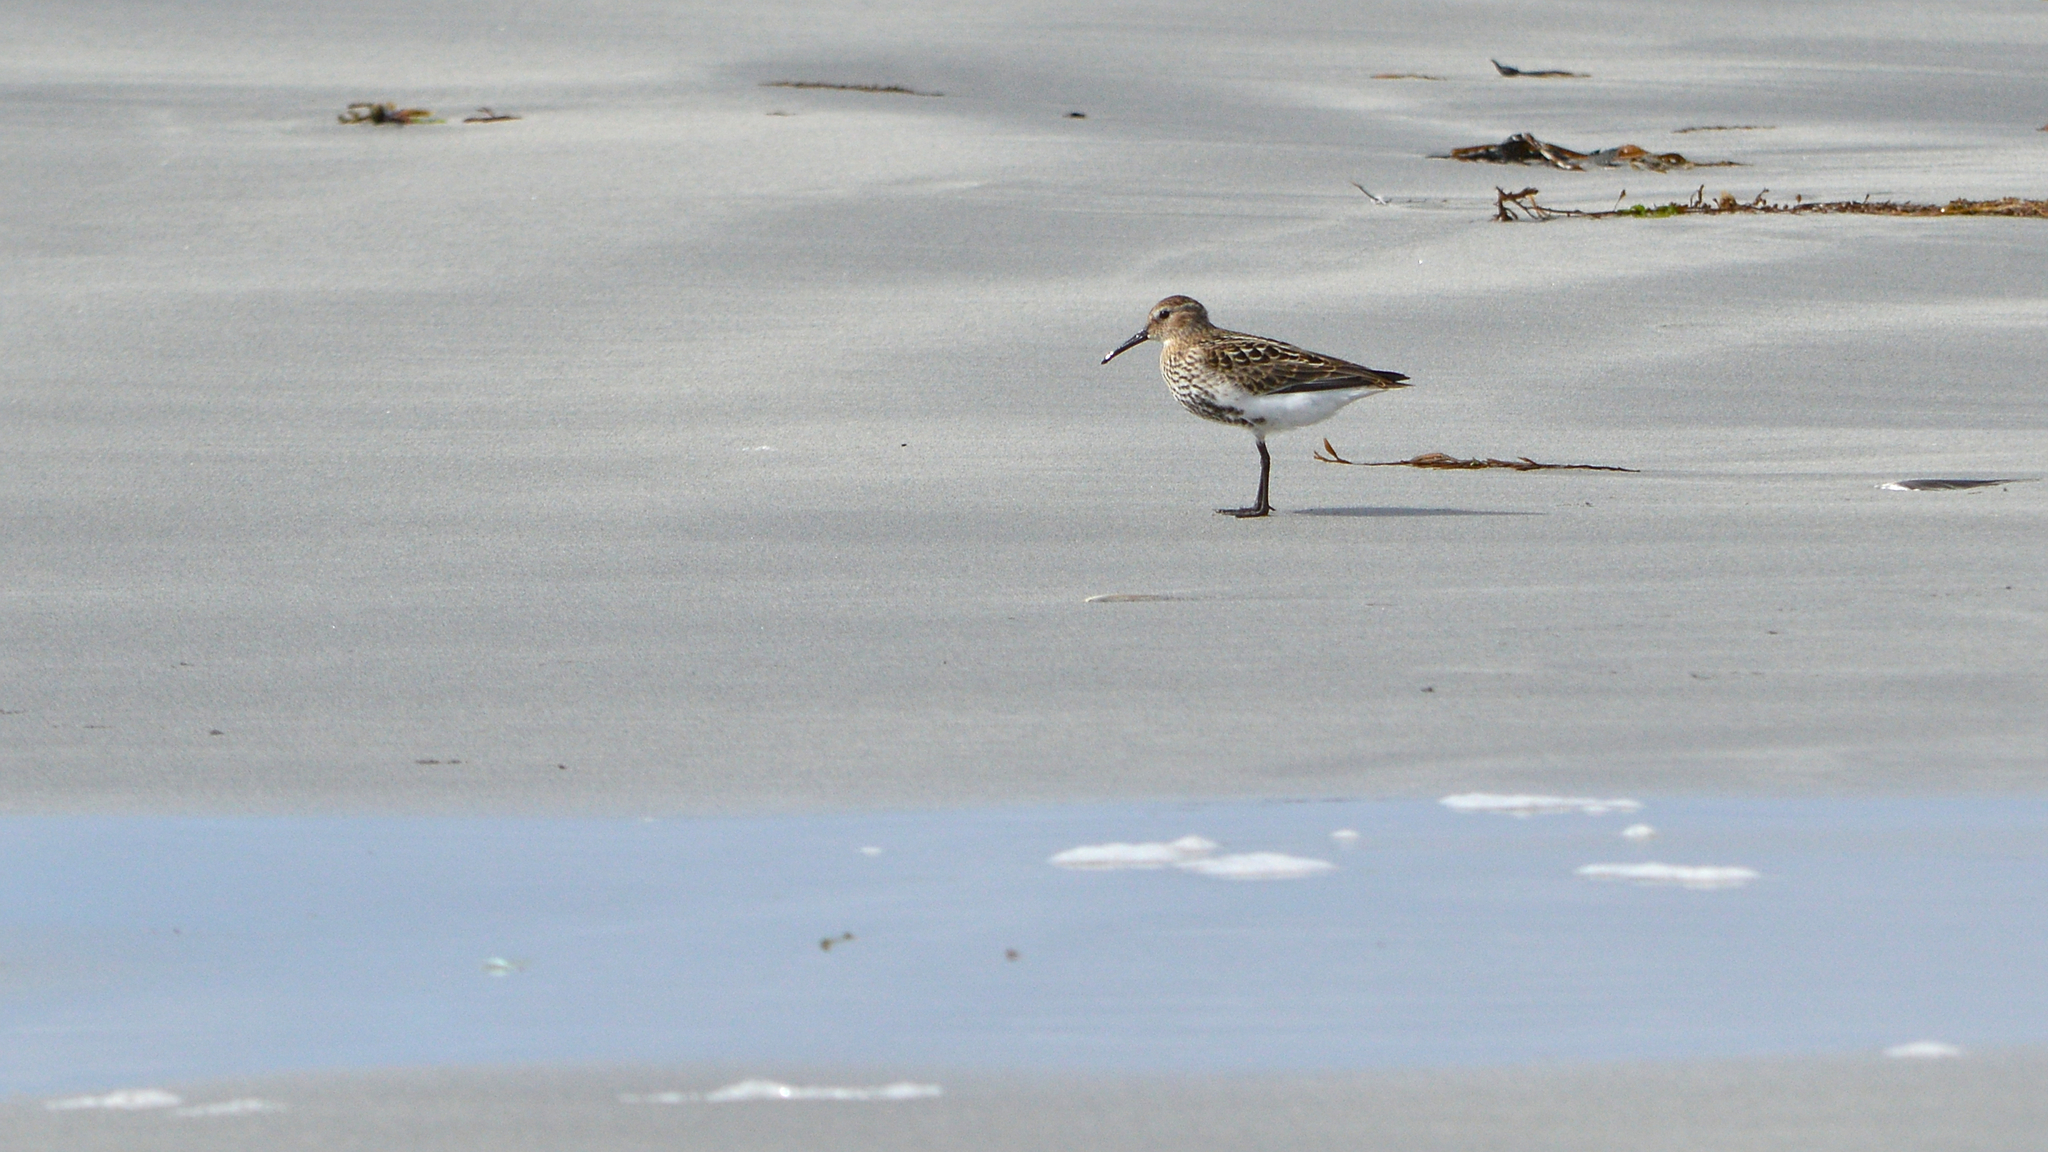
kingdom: Animalia
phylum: Chordata
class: Aves
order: Charadriiformes
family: Scolopacidae
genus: Calidris
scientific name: Calidris alpina
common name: Dunlin
